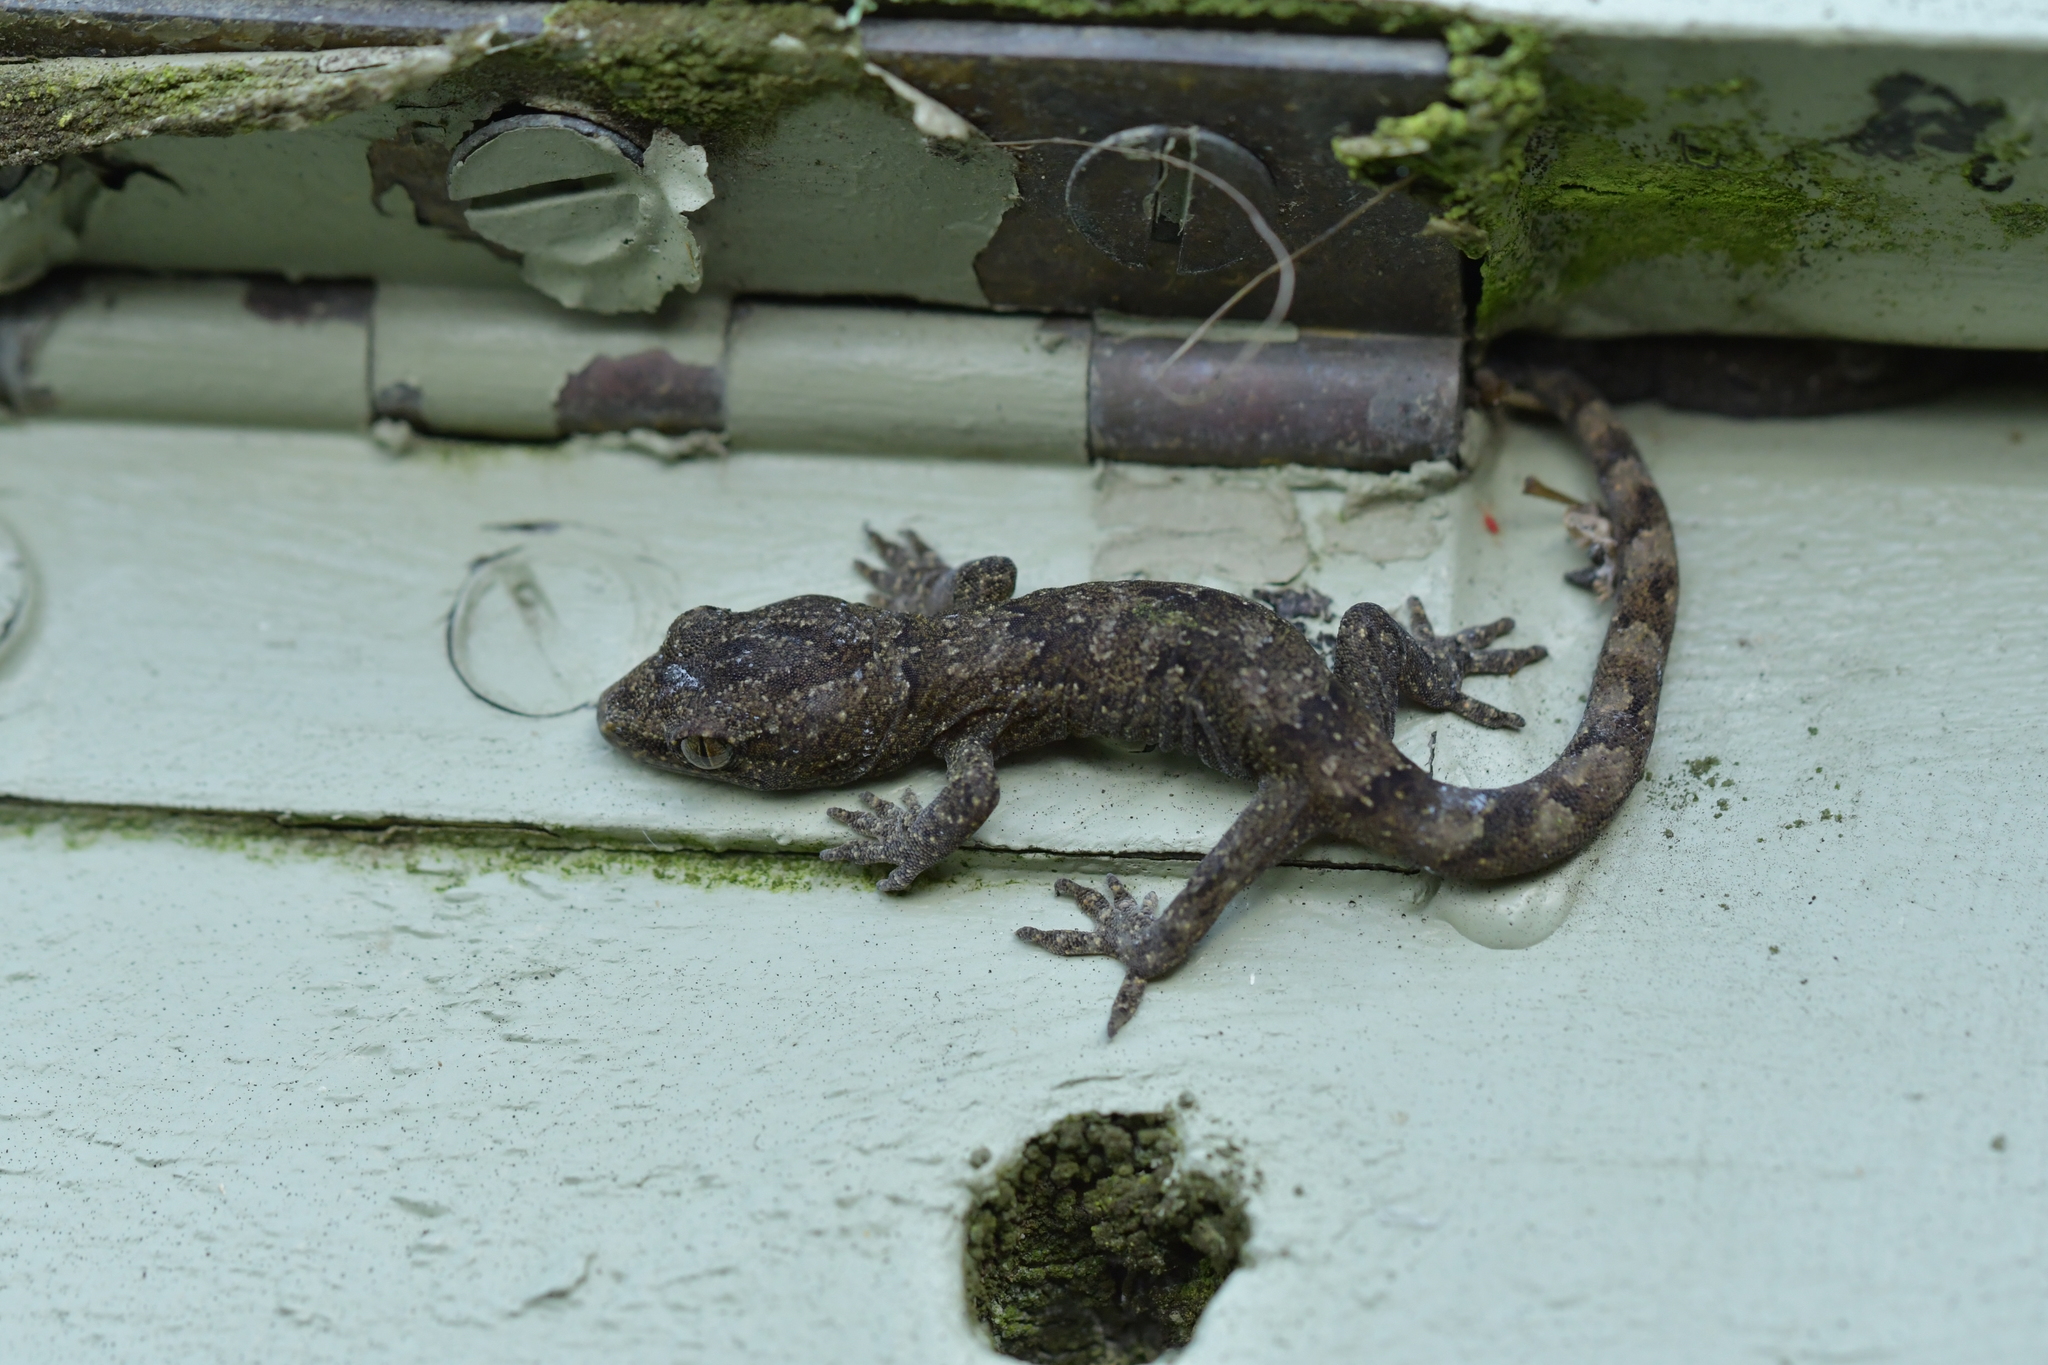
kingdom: Animalia
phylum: Chordata
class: Squamata
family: Diplodactylidae
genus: Woodworthia
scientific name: Woodworthia maculata
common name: Raukawa gecko
